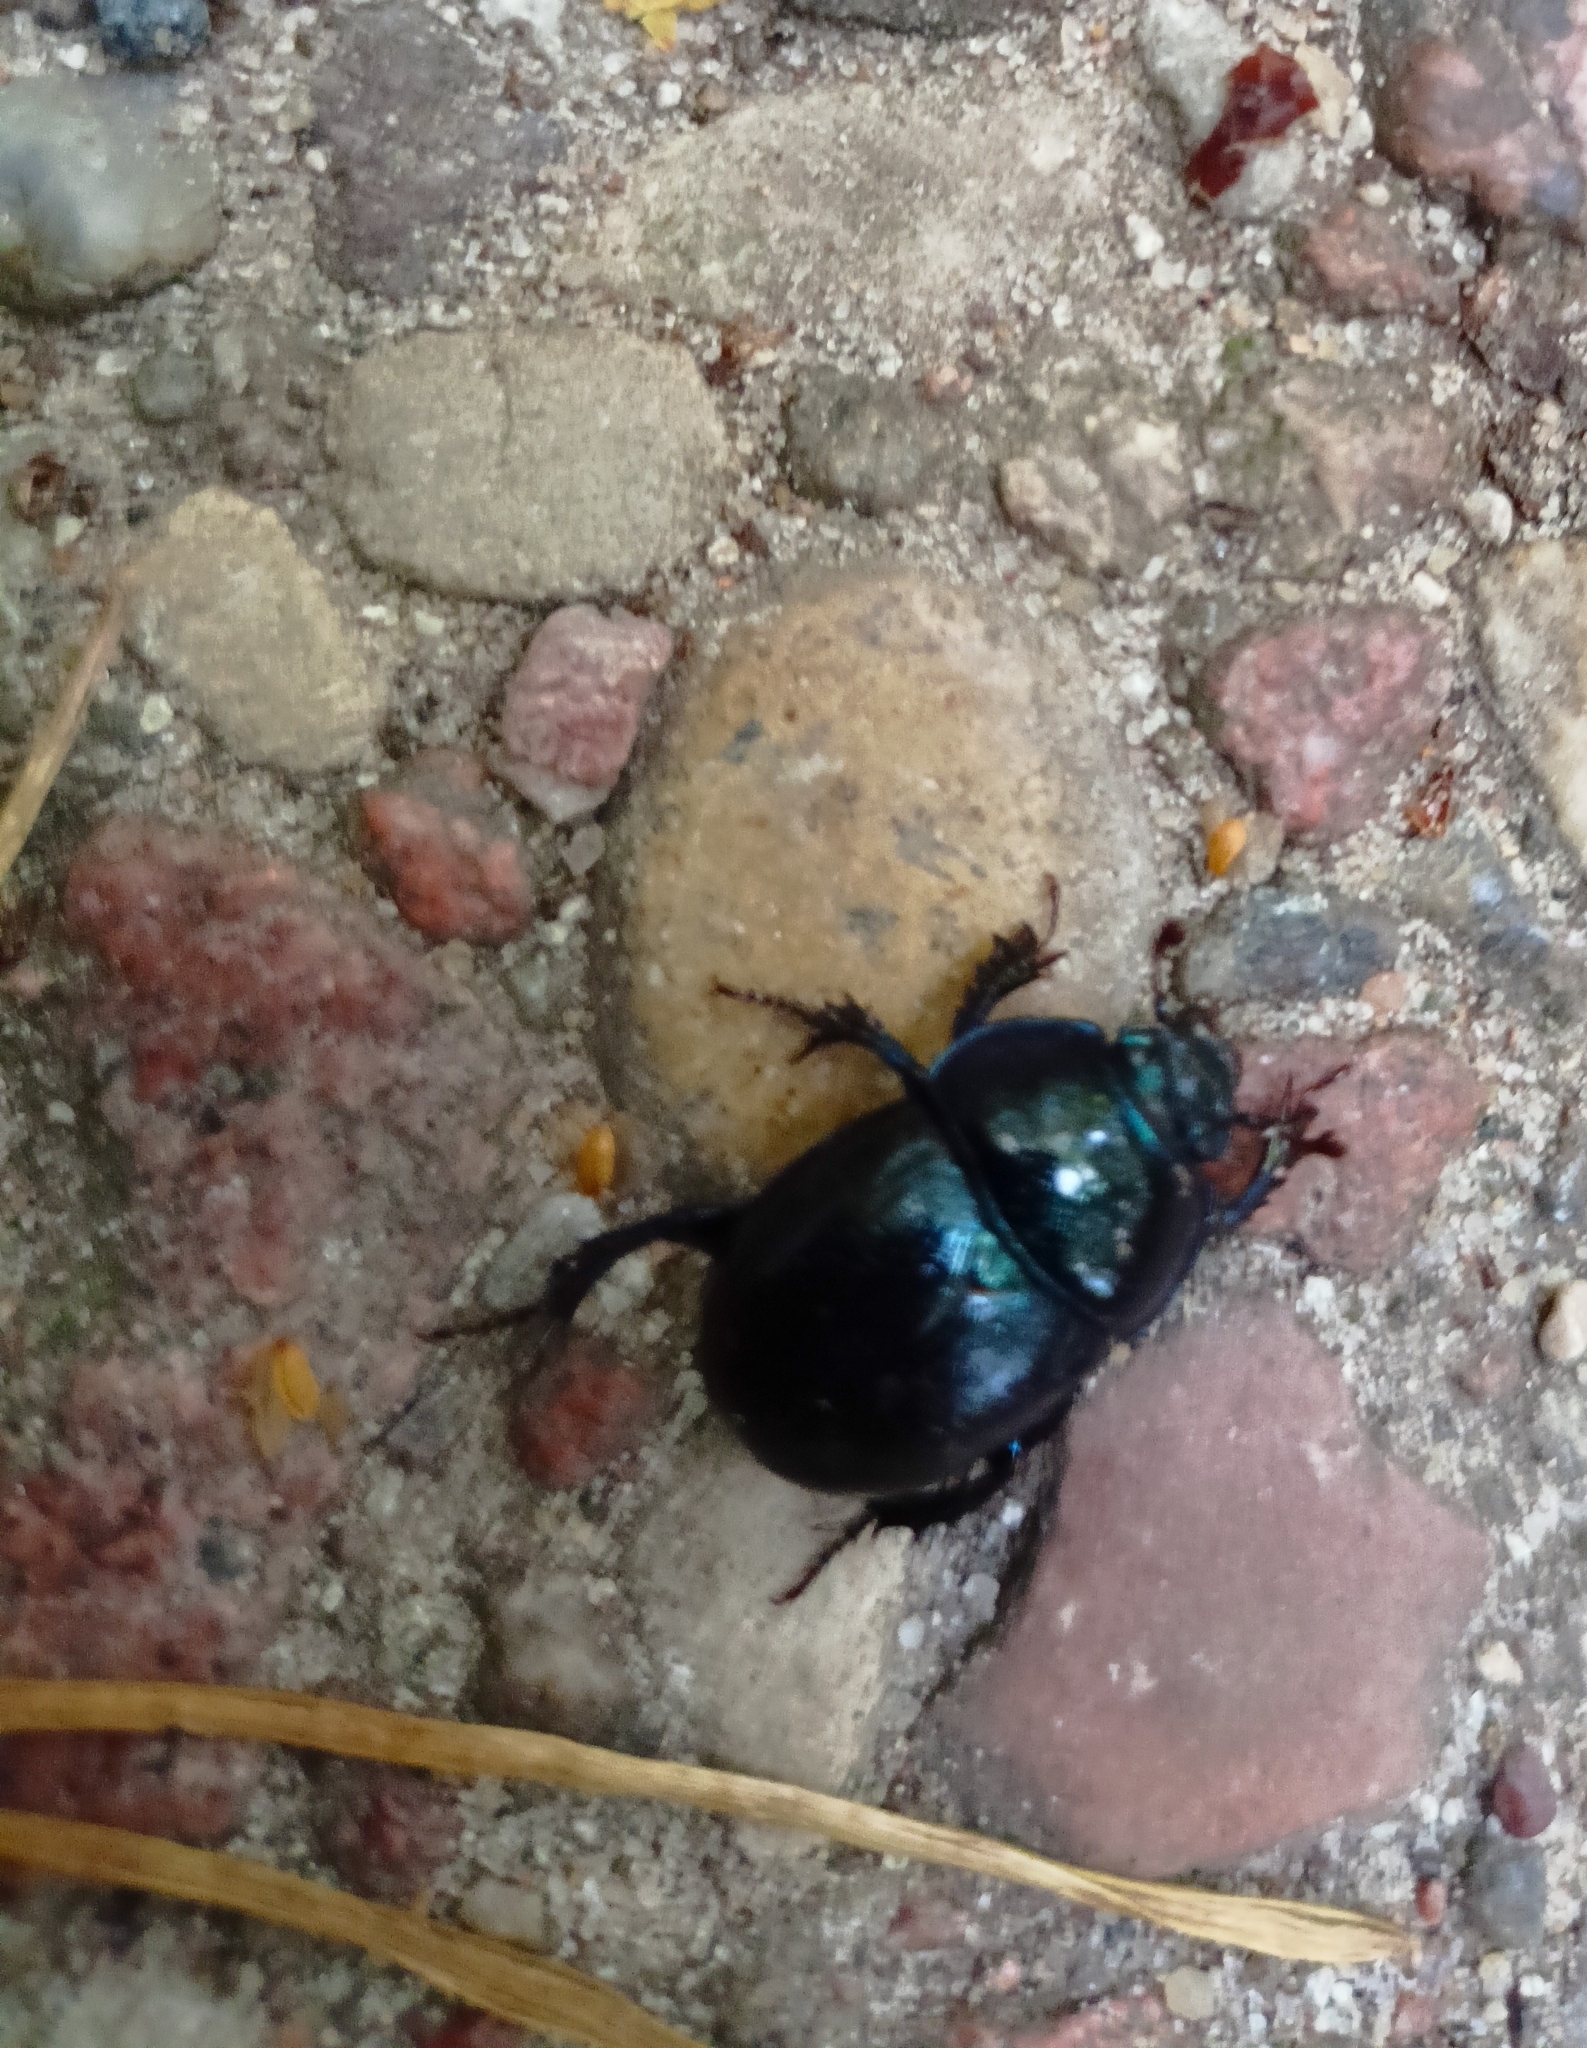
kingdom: Animalia
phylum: Arthropoda
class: Insecta
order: Coleoptera
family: Geotrupidae
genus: Anoplotrupes
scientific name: Anoplotrupes stercorosus
